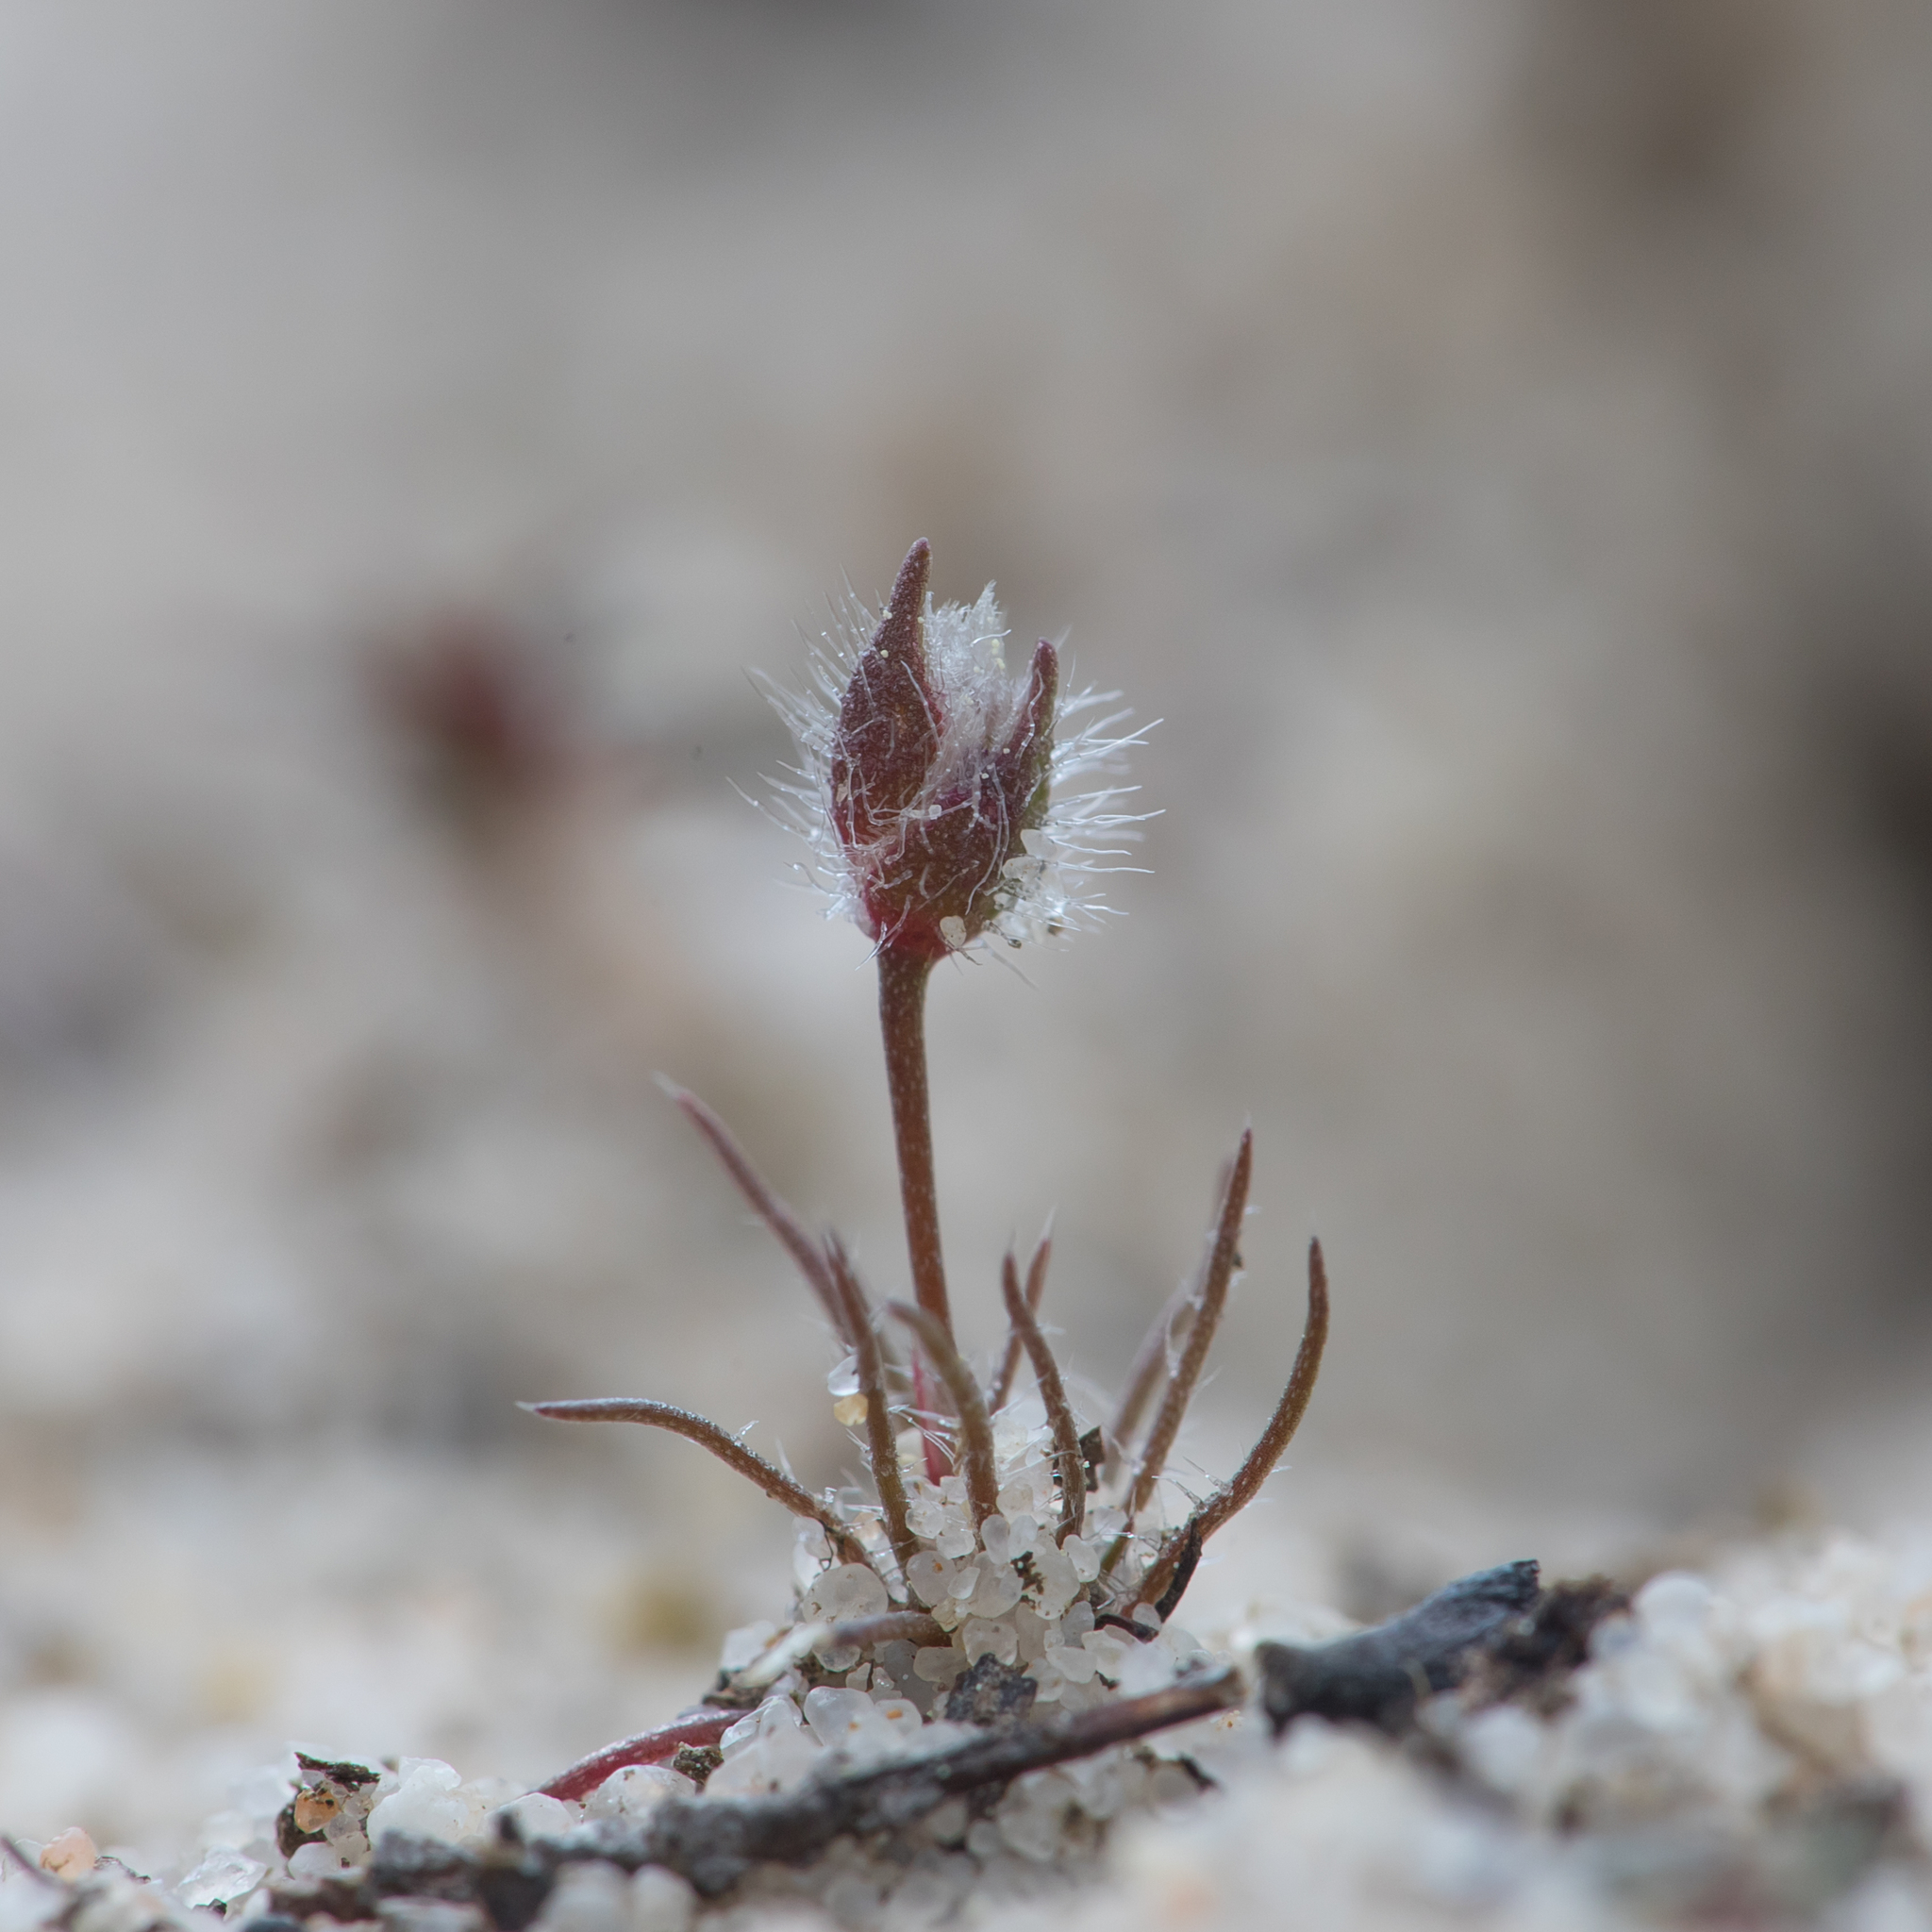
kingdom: Plantae
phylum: Tracheophyta
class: Liliopsida
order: Poales
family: Restionaceae
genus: Centrolepis
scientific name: Centrolepis strigosa
